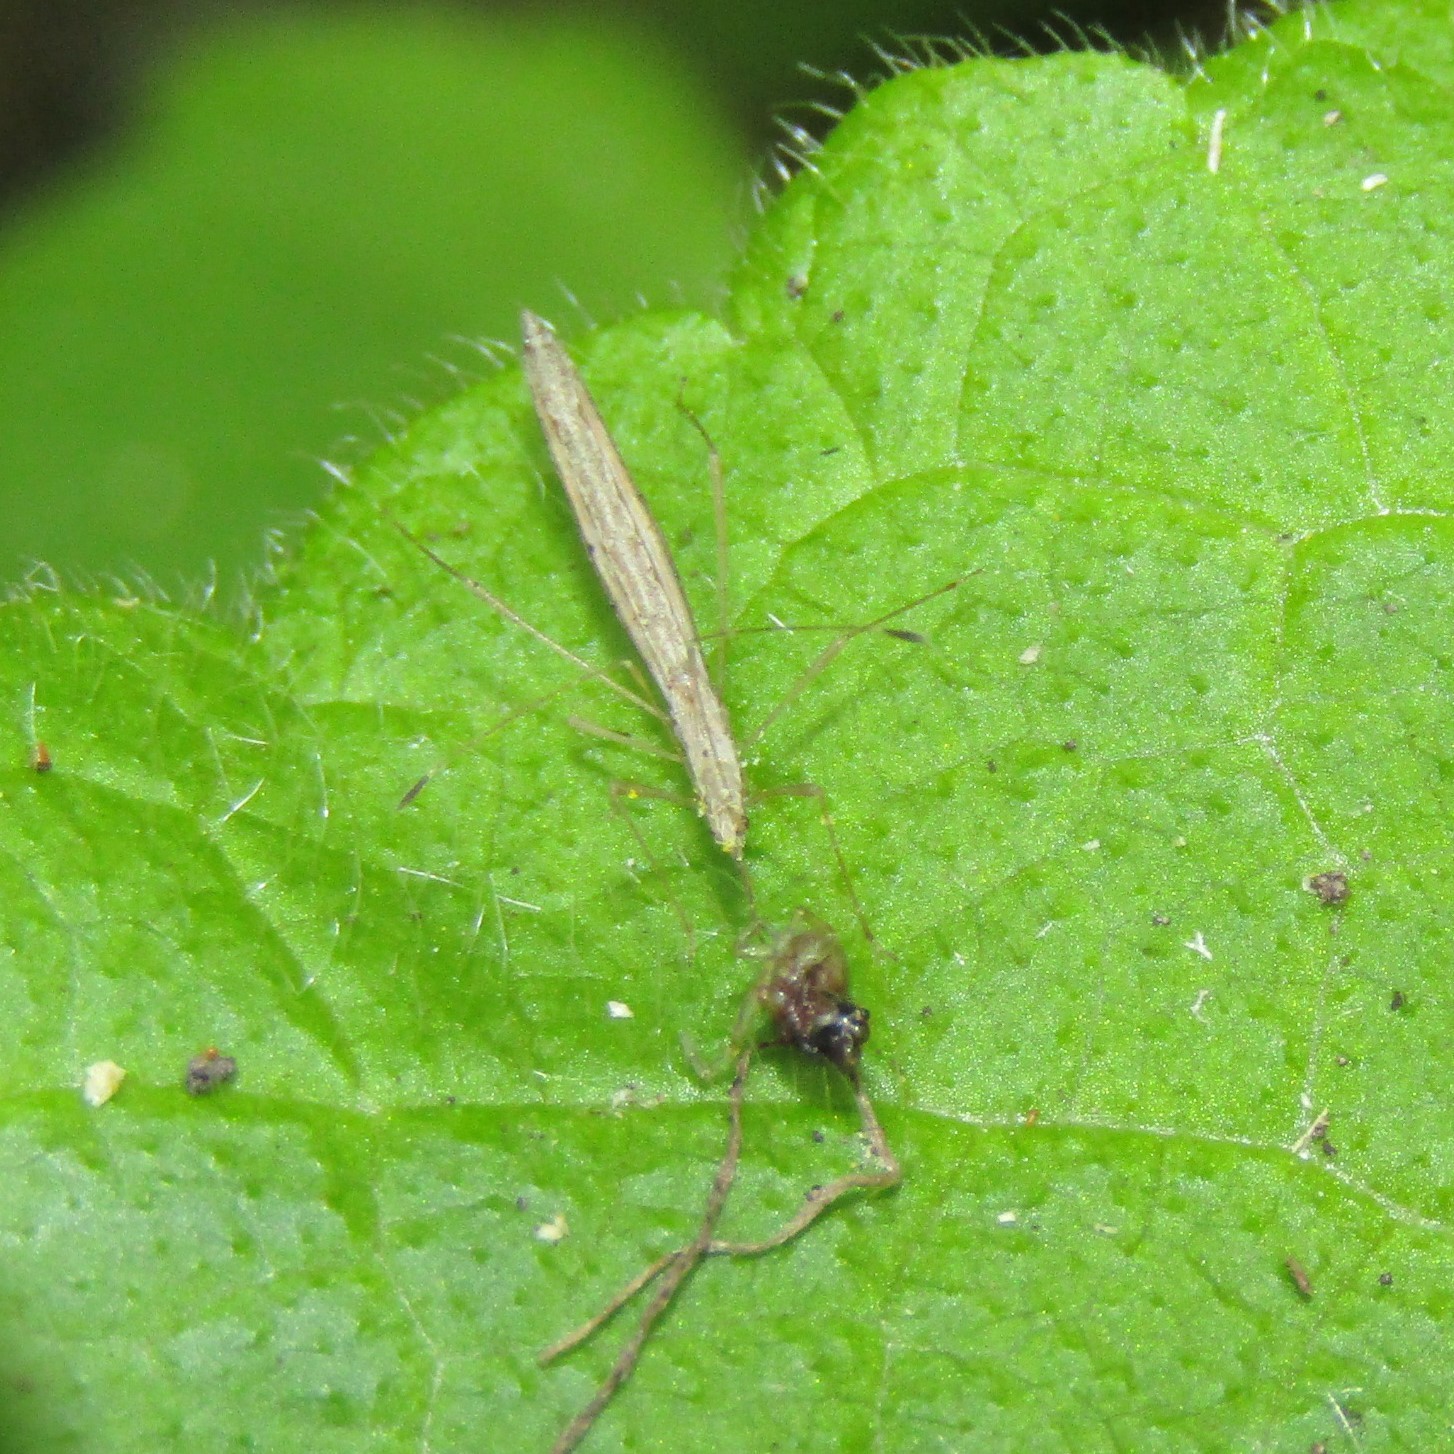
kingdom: Animalia
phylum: Arthropoda
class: Insecta
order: Hemiptera
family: Berytidae
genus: Bezu
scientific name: Bezu wakefieldi
